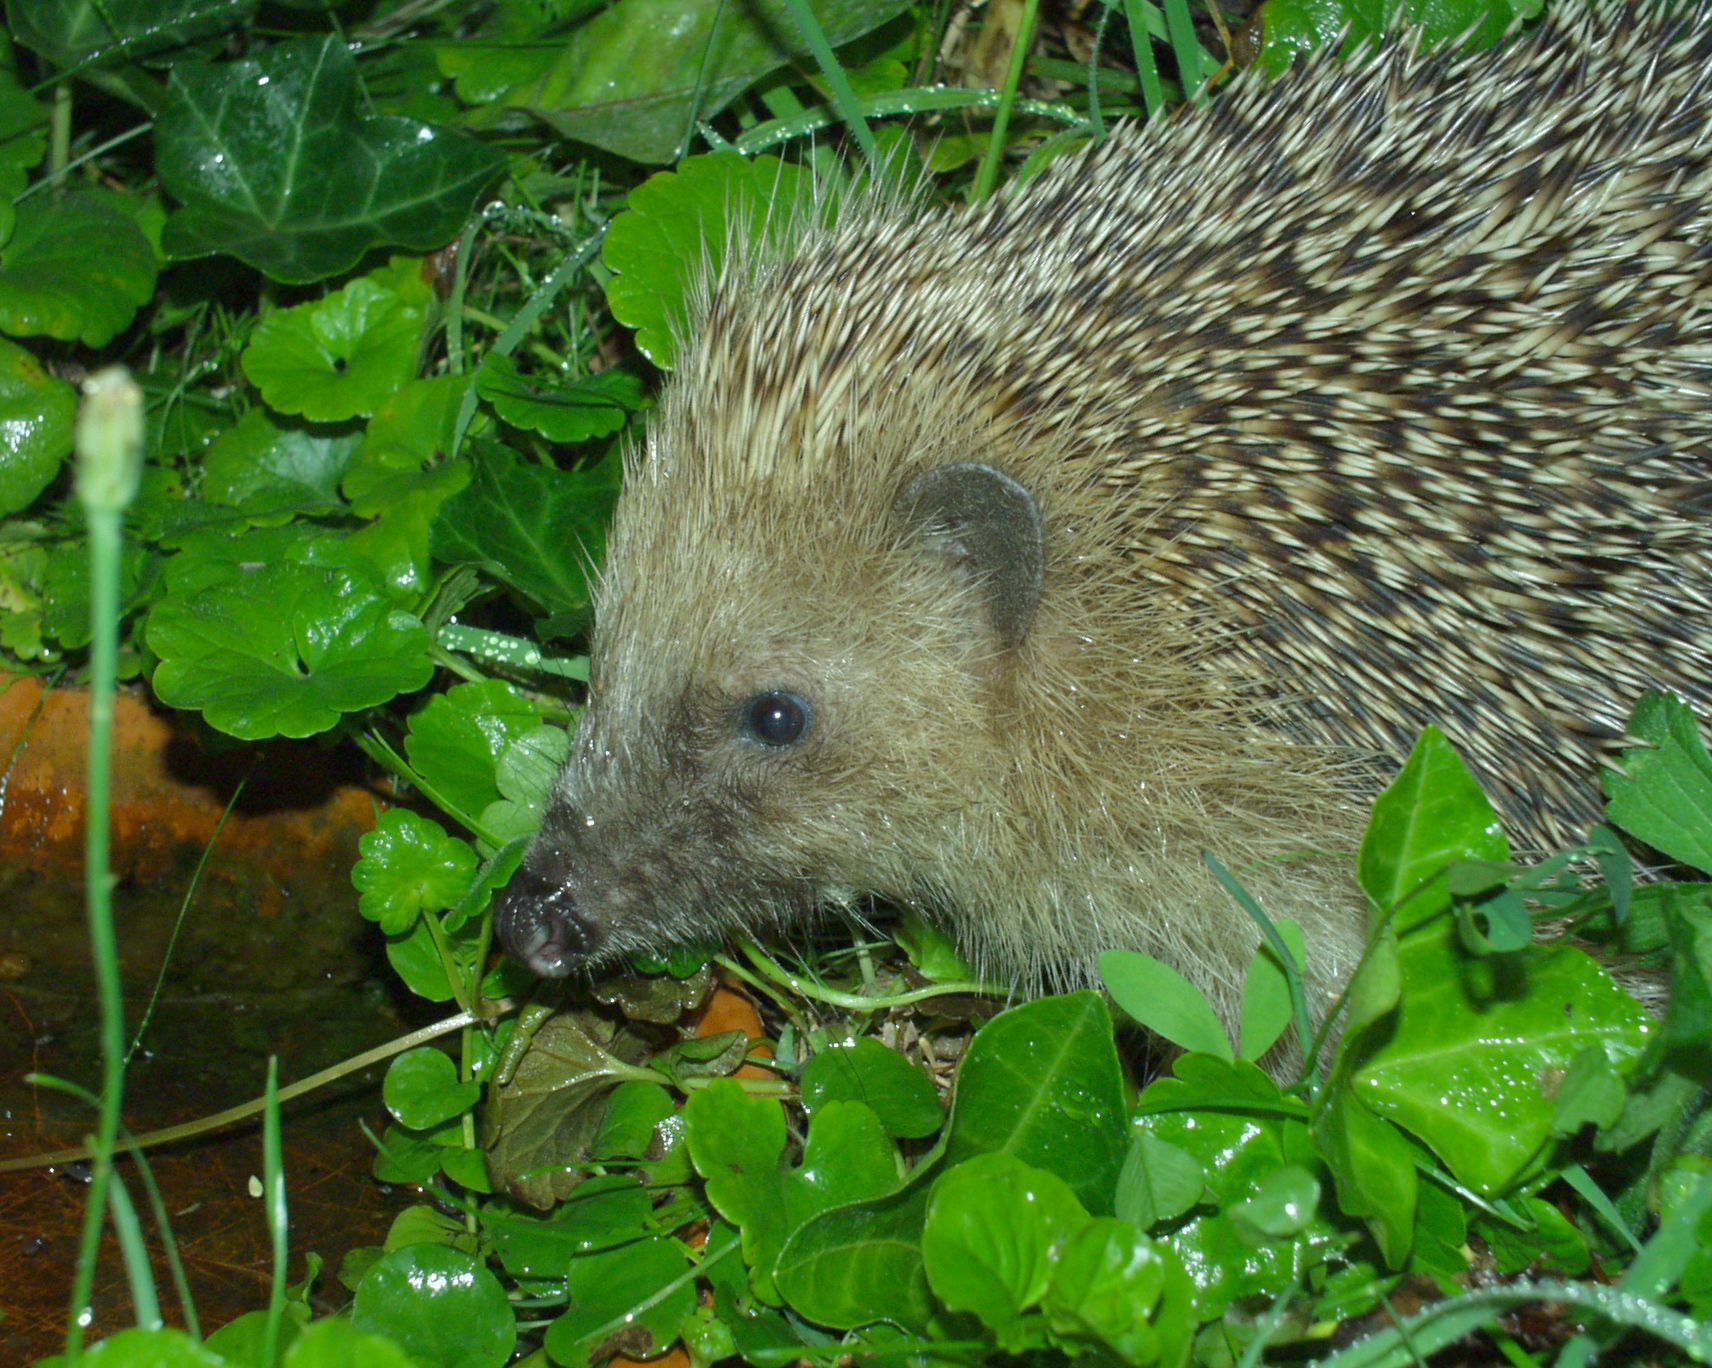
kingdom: Animalia
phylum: Chordata
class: Mammalia
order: Erinaceomorpha
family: Erinaceidae
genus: Erinaceus
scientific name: Erinaceus europaeus
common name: West european hedgehog
